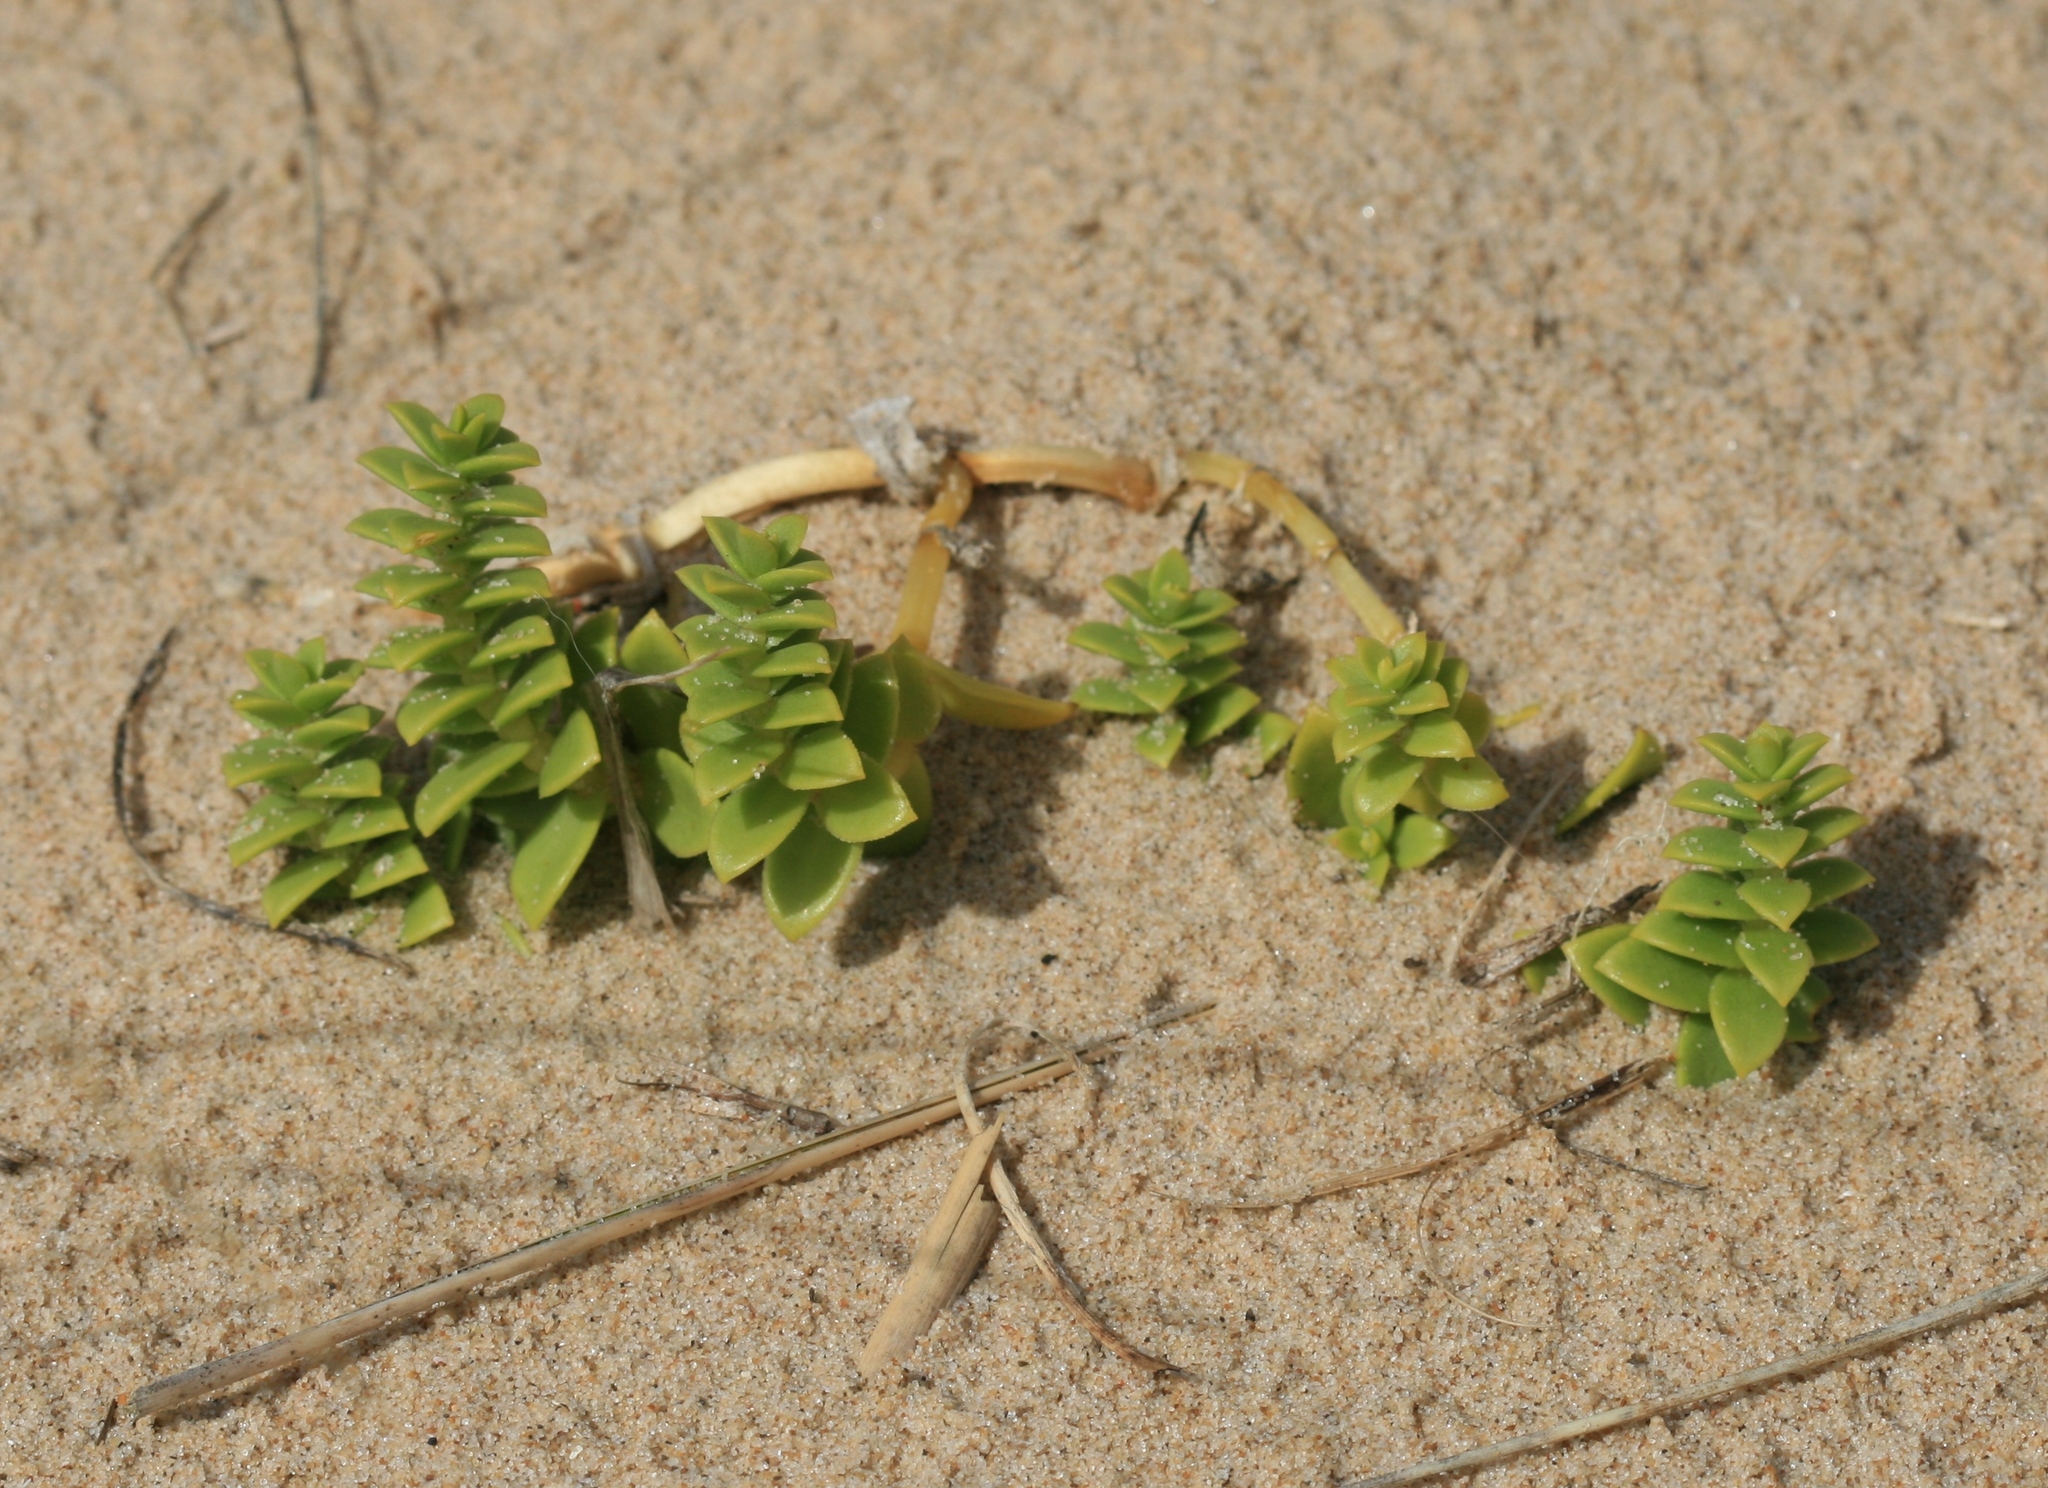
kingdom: Plantae
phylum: Tracheophyta
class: Magnoliopsida
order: Caryophyllales
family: Caryophyllaceae
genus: Honckenya
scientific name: Honckenya peploides
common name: Sea sandwort
